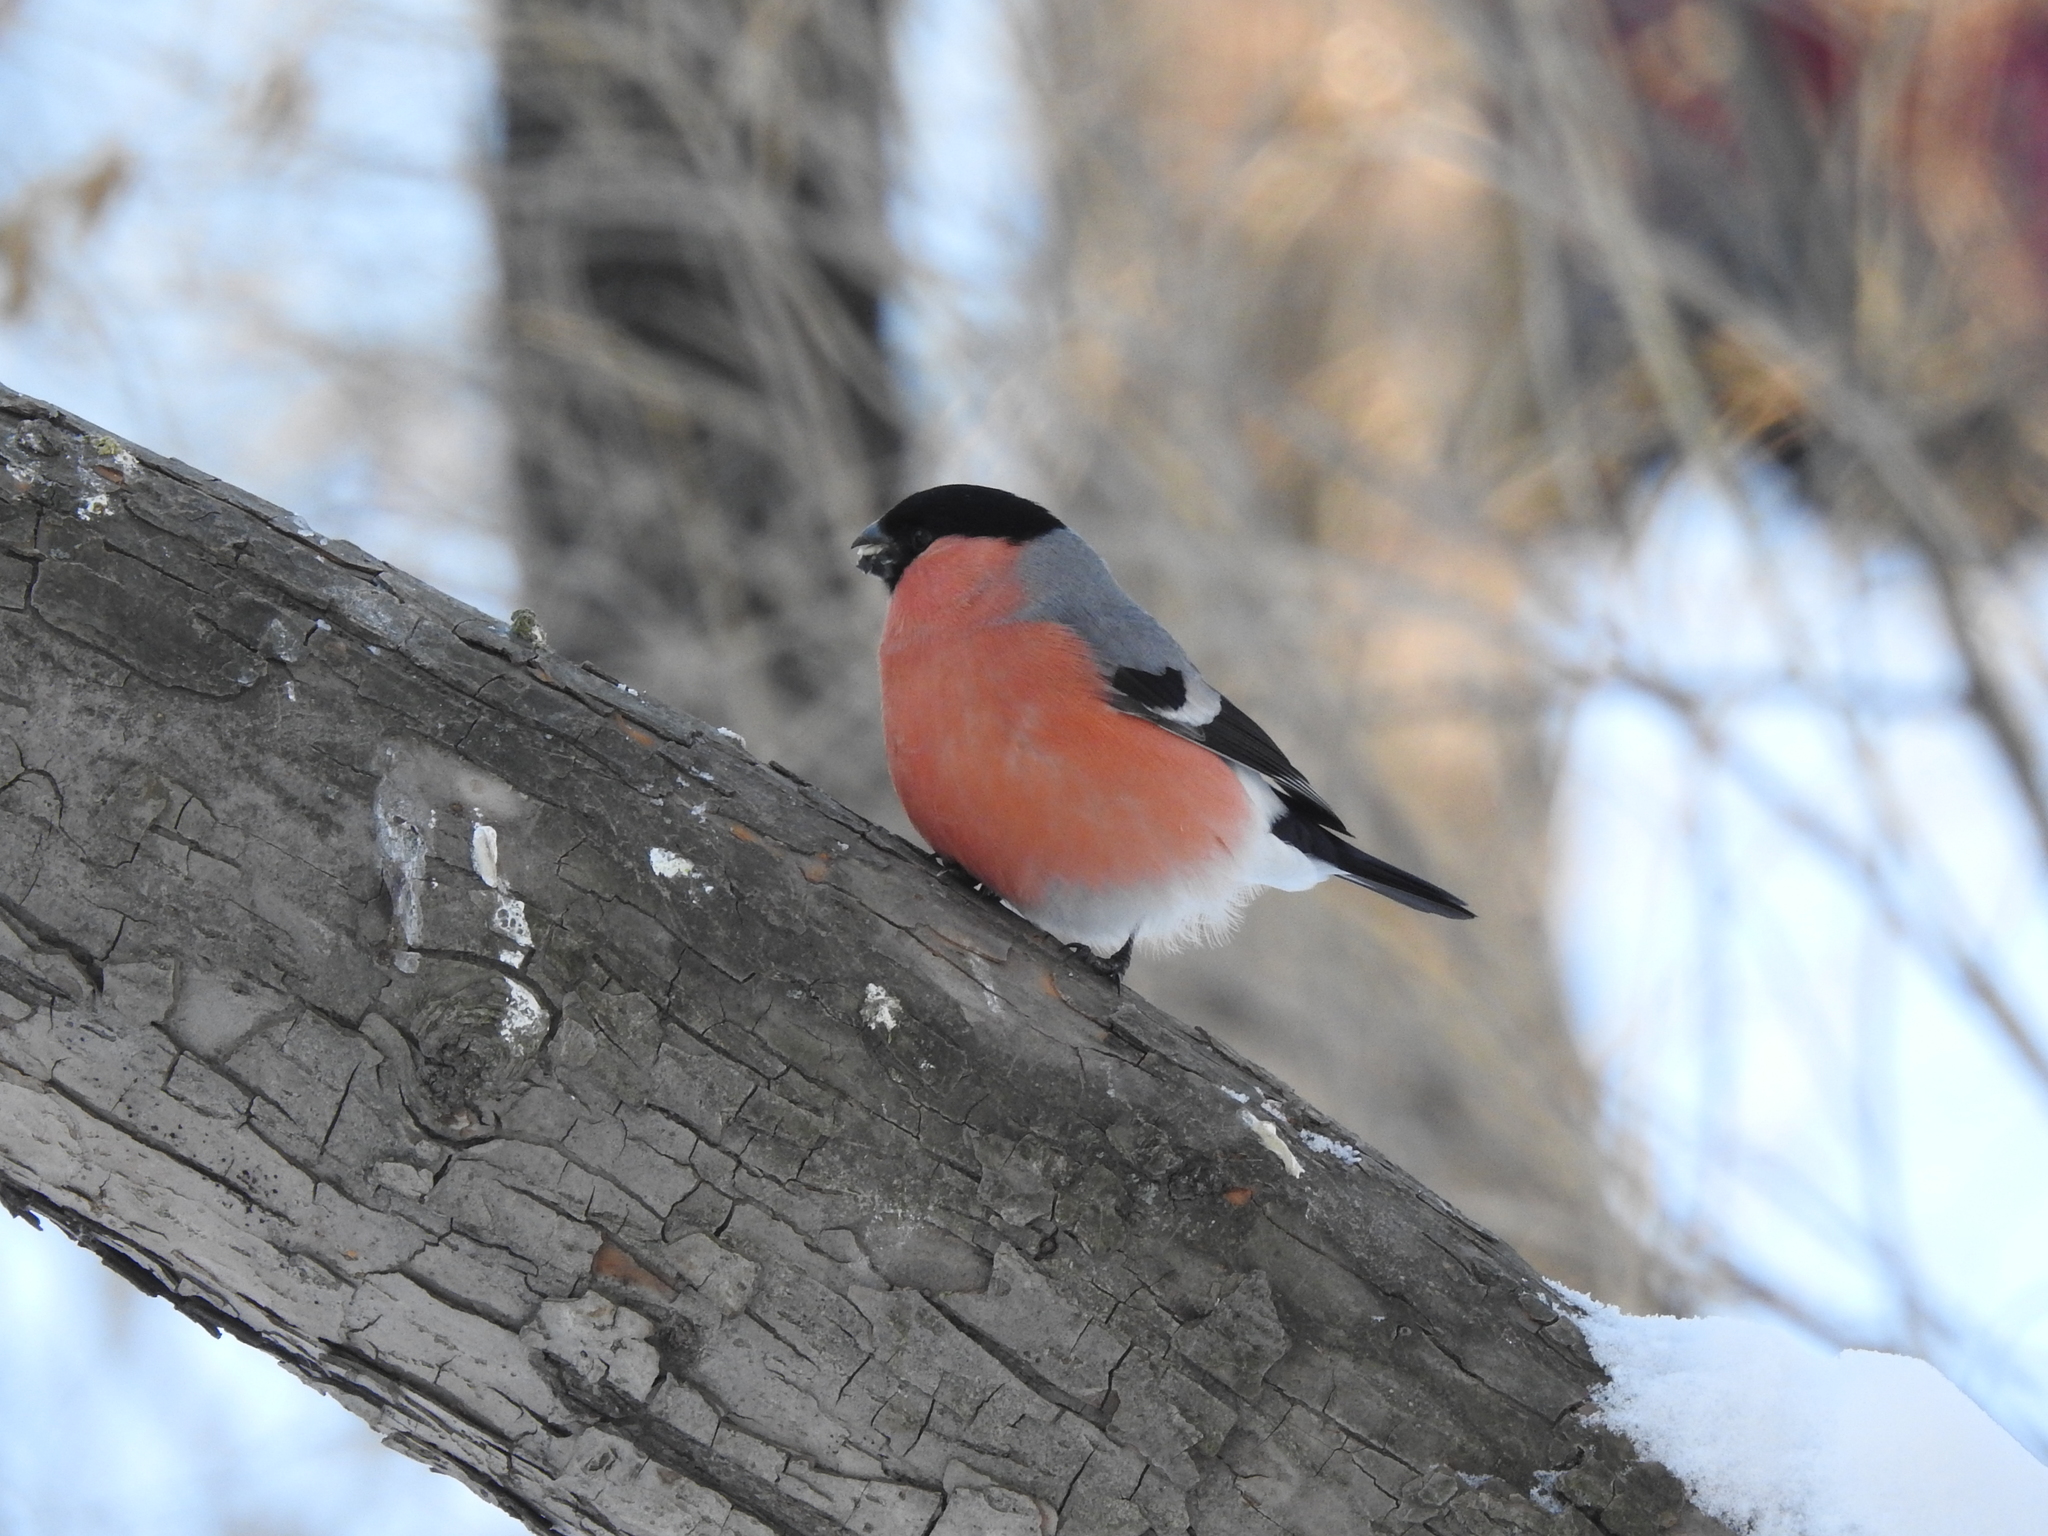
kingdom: Animalia
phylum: Chordata
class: Aves
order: Passeriformes
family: Fringillidae
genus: Pyrrhula
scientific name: Pyrrhula pyrrhula
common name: Eurasian bullfinch
